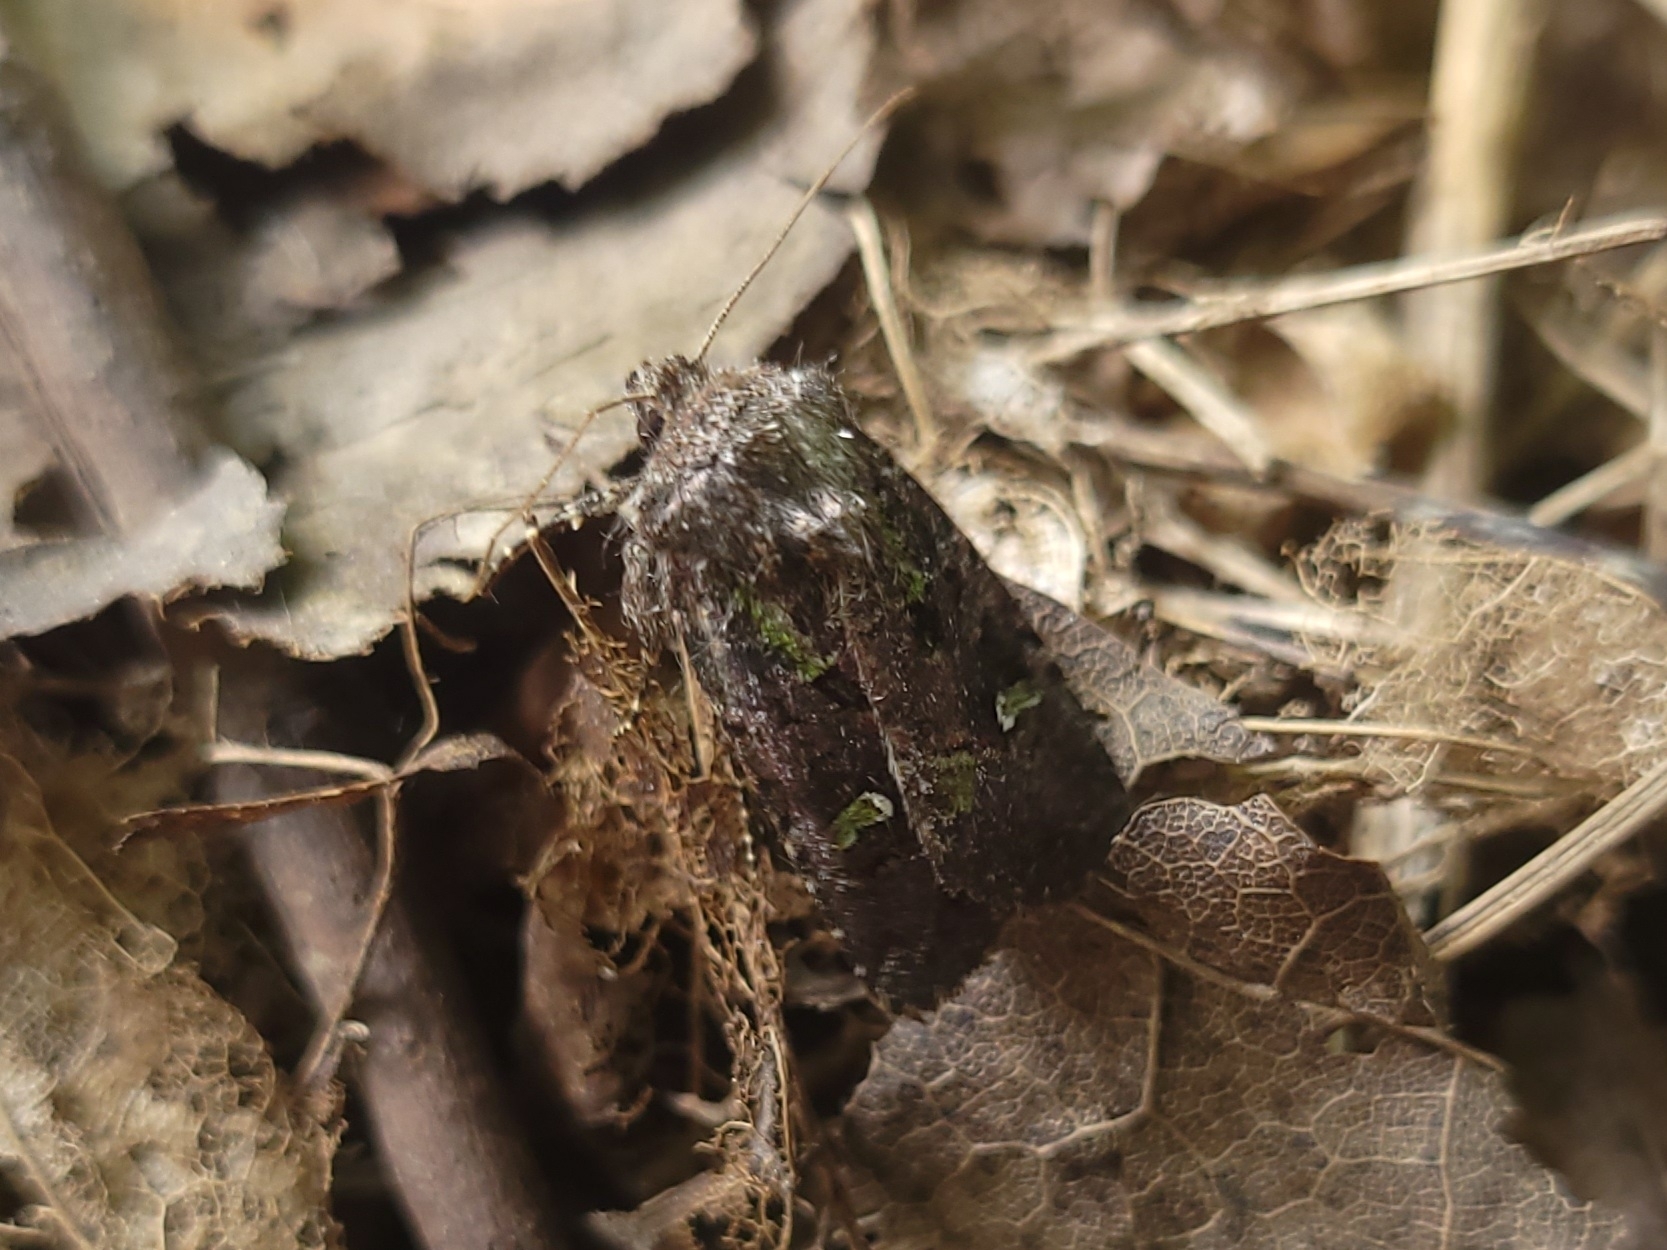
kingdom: Animalia
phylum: Arthropoda
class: Insecta
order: Lepidoptera
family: Noctuidae
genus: Lacinipolia
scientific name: Lacinipolia renigera
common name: Kidney-spotted minor
